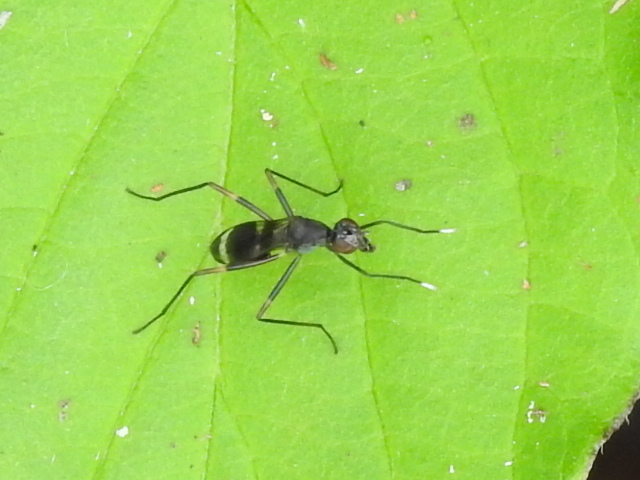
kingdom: Animalia
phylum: Arthropoda
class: Insecta
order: Diptera
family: Micropezidae
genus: Taeniaptera
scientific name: Taeniaptera trivittata
